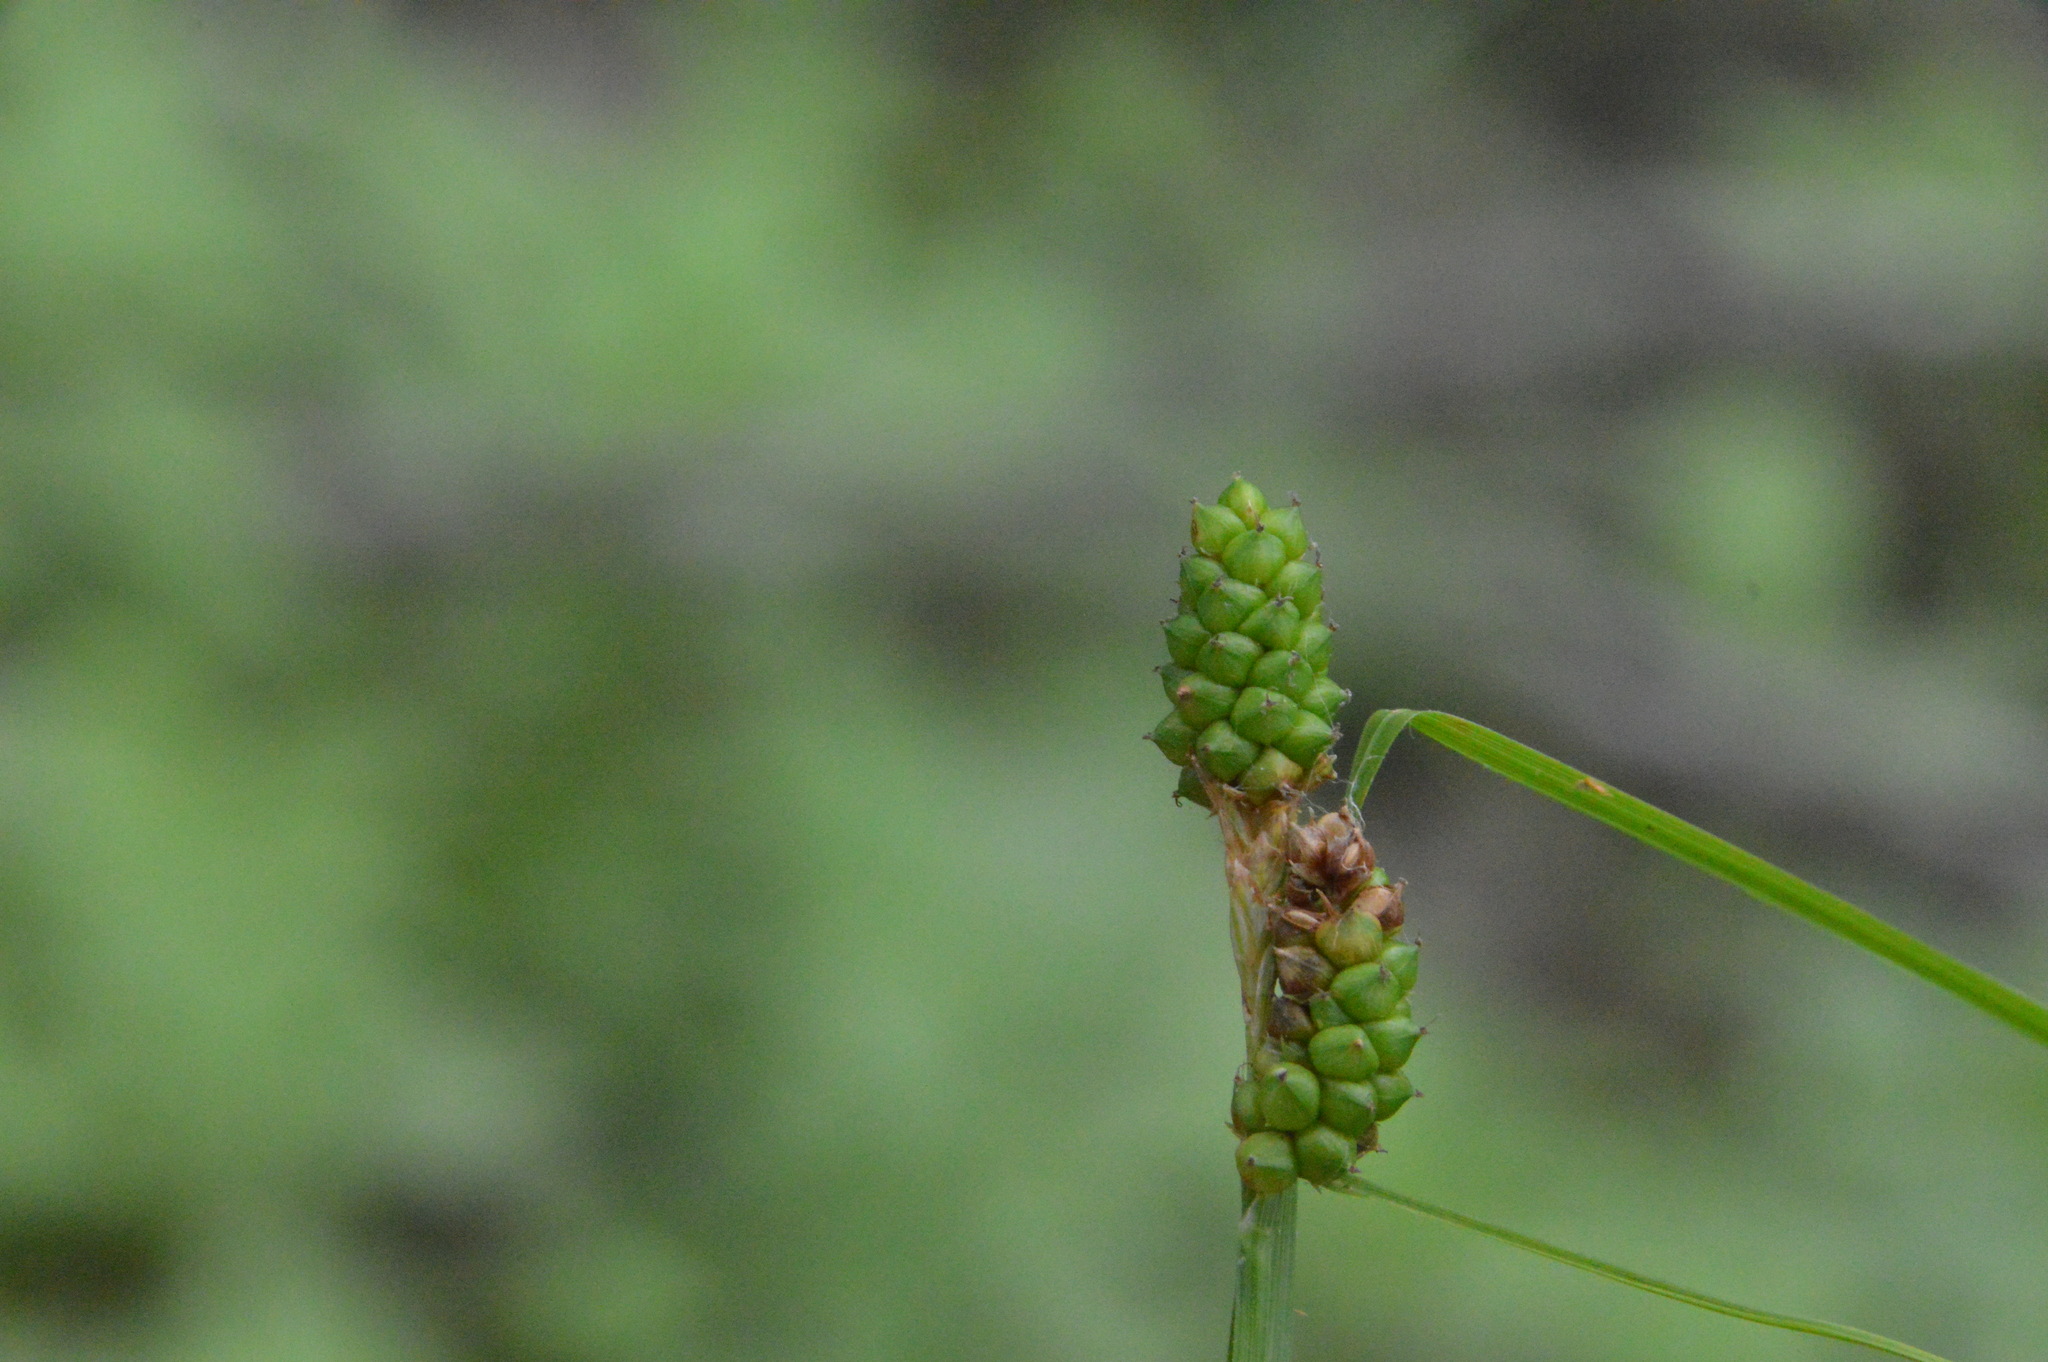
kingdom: Plantae
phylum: Tracheophyta
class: Liliopsida
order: Poales
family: Cyperaceae
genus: Carex
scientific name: Carex caroliniana
